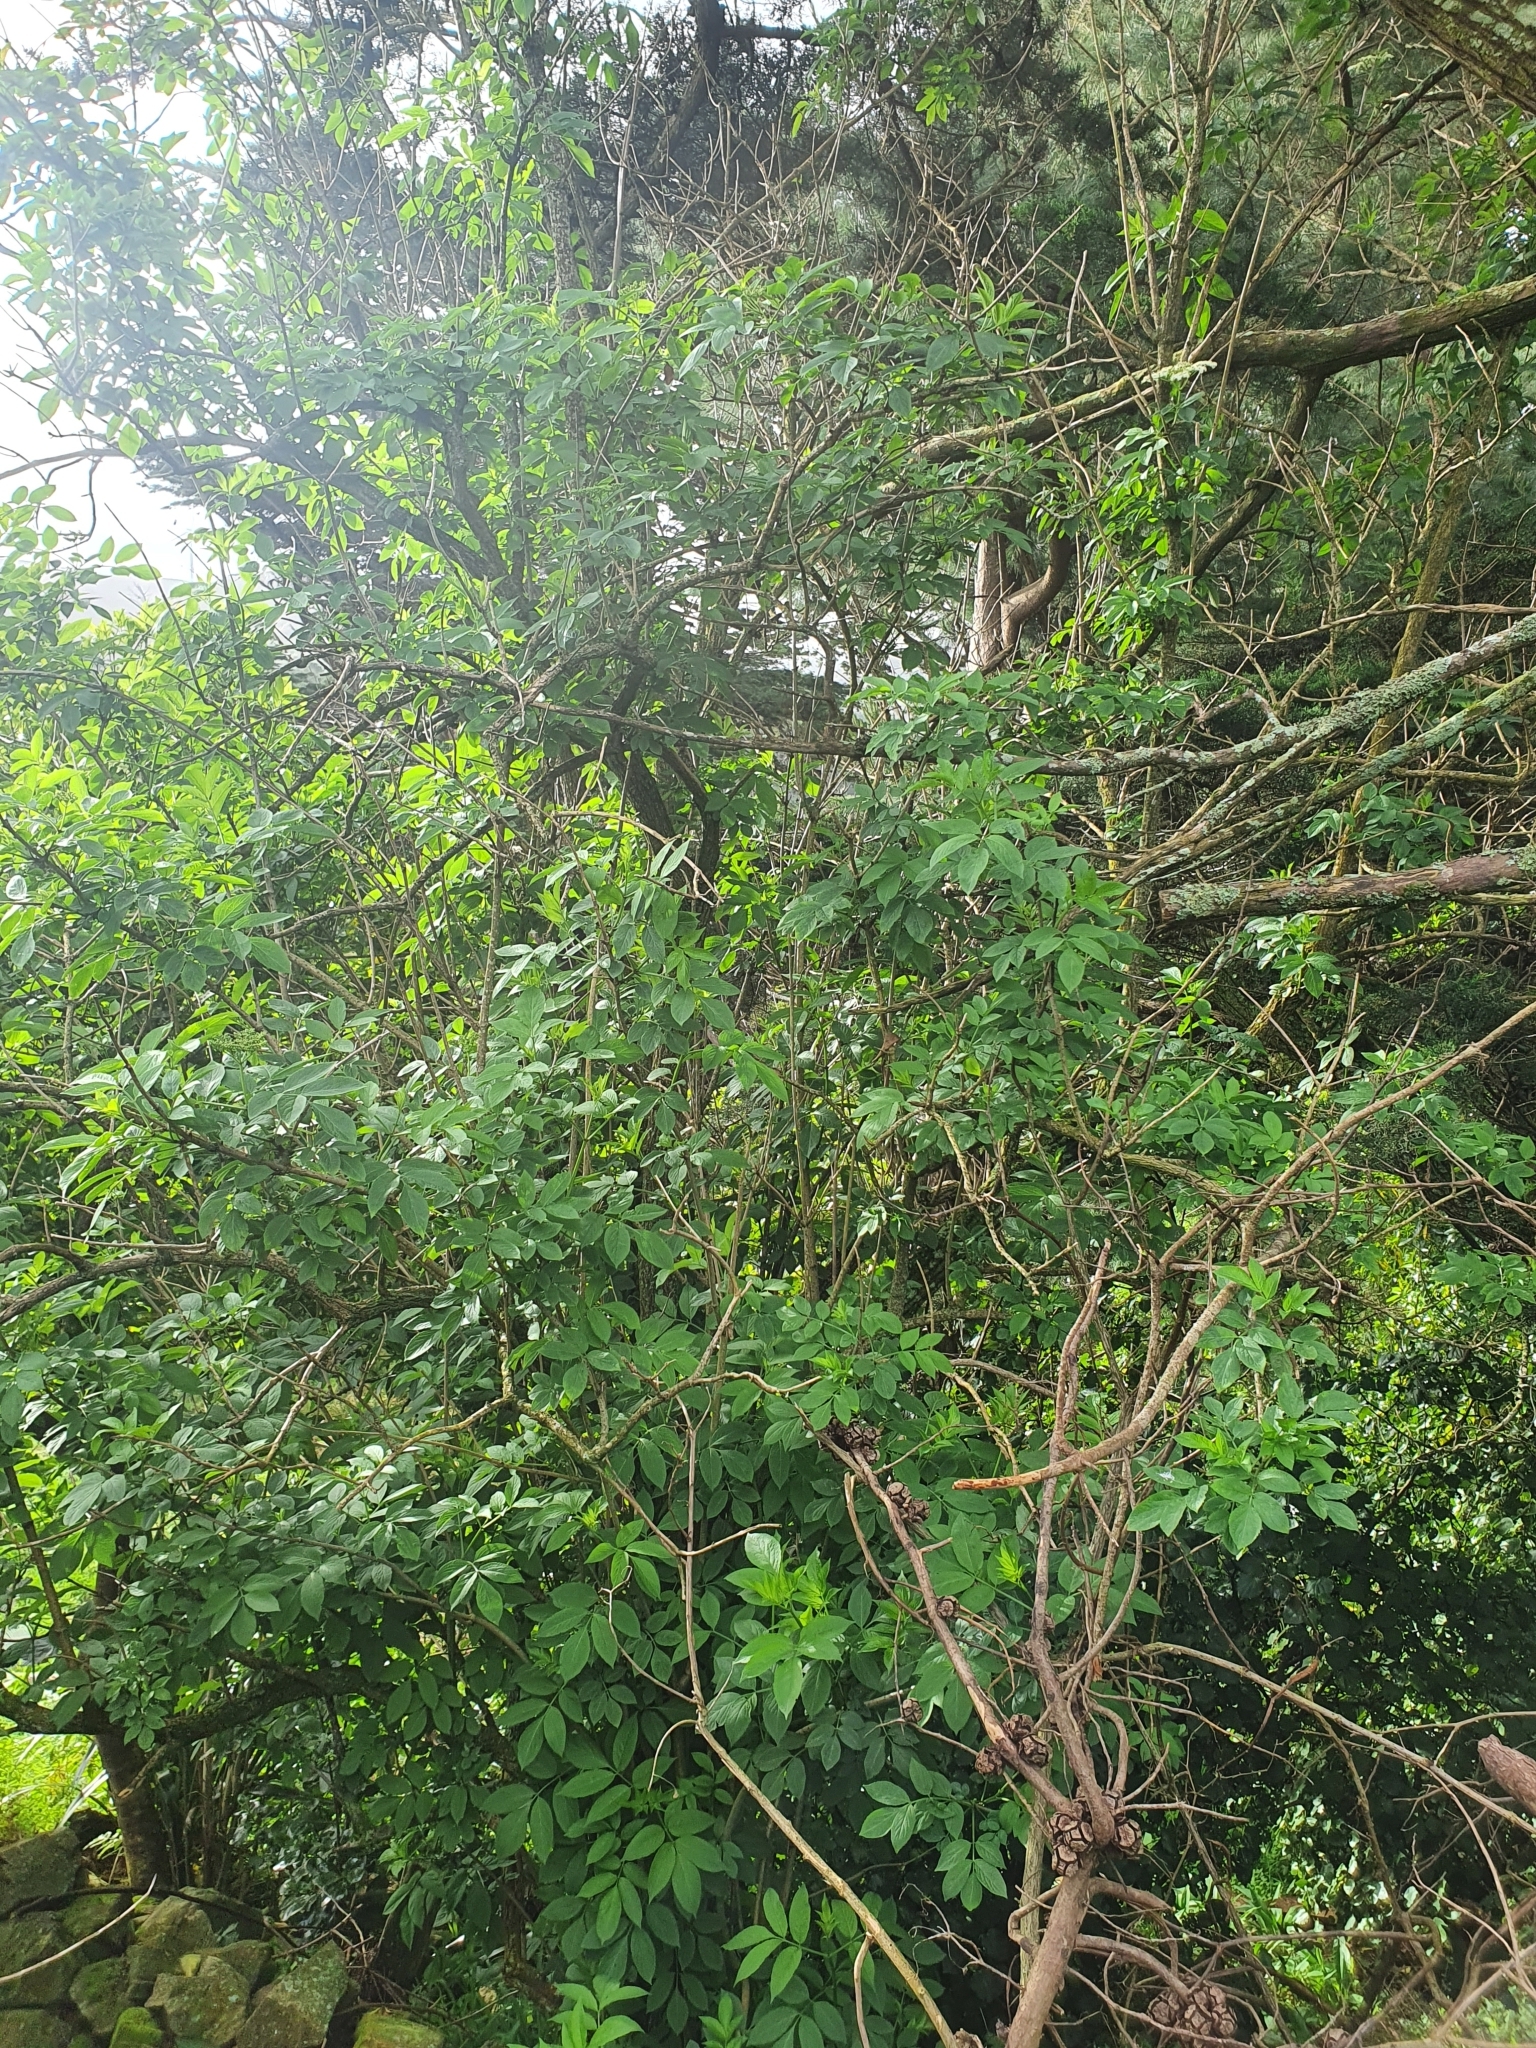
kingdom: Plantae
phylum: Tracheophyta
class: Magnoliopsida
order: Dipsacales
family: Viburnaceae
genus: Sambucus
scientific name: Sambucus nigra
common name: Elder
